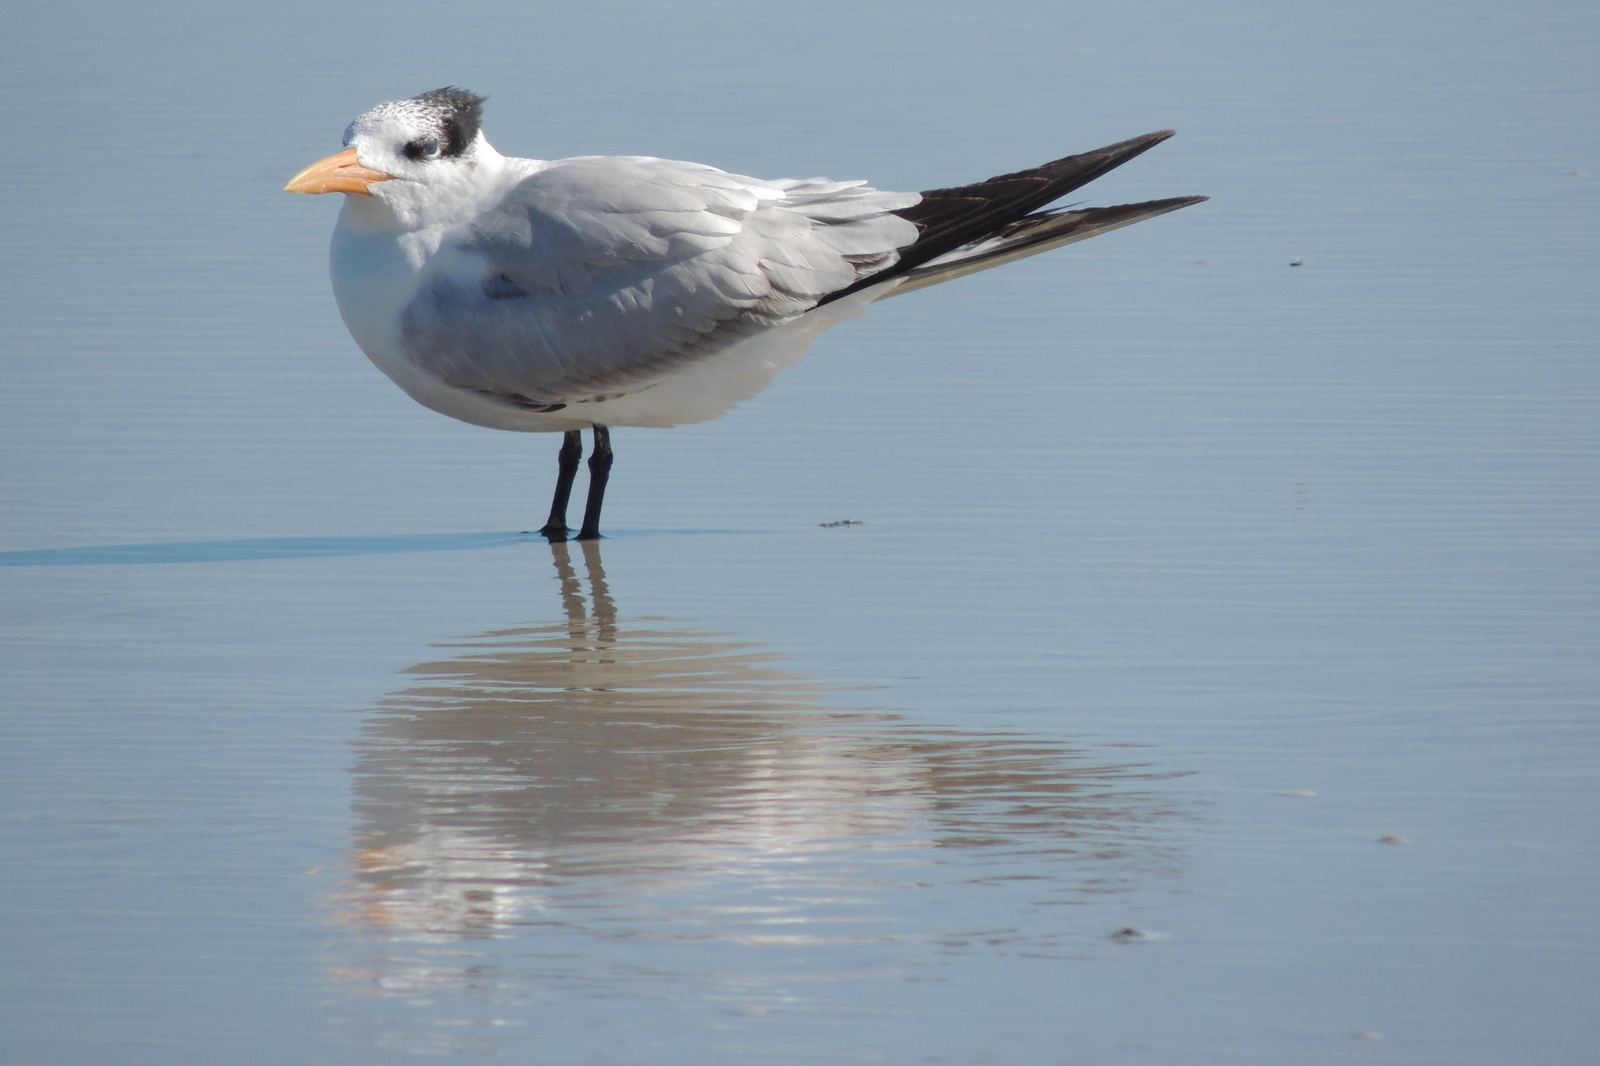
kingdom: Animalia
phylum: Chordata
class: Aves
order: Charadriiformes
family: Laridae
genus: Thalasseus
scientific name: Thalasseus maximus
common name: Royal tern
